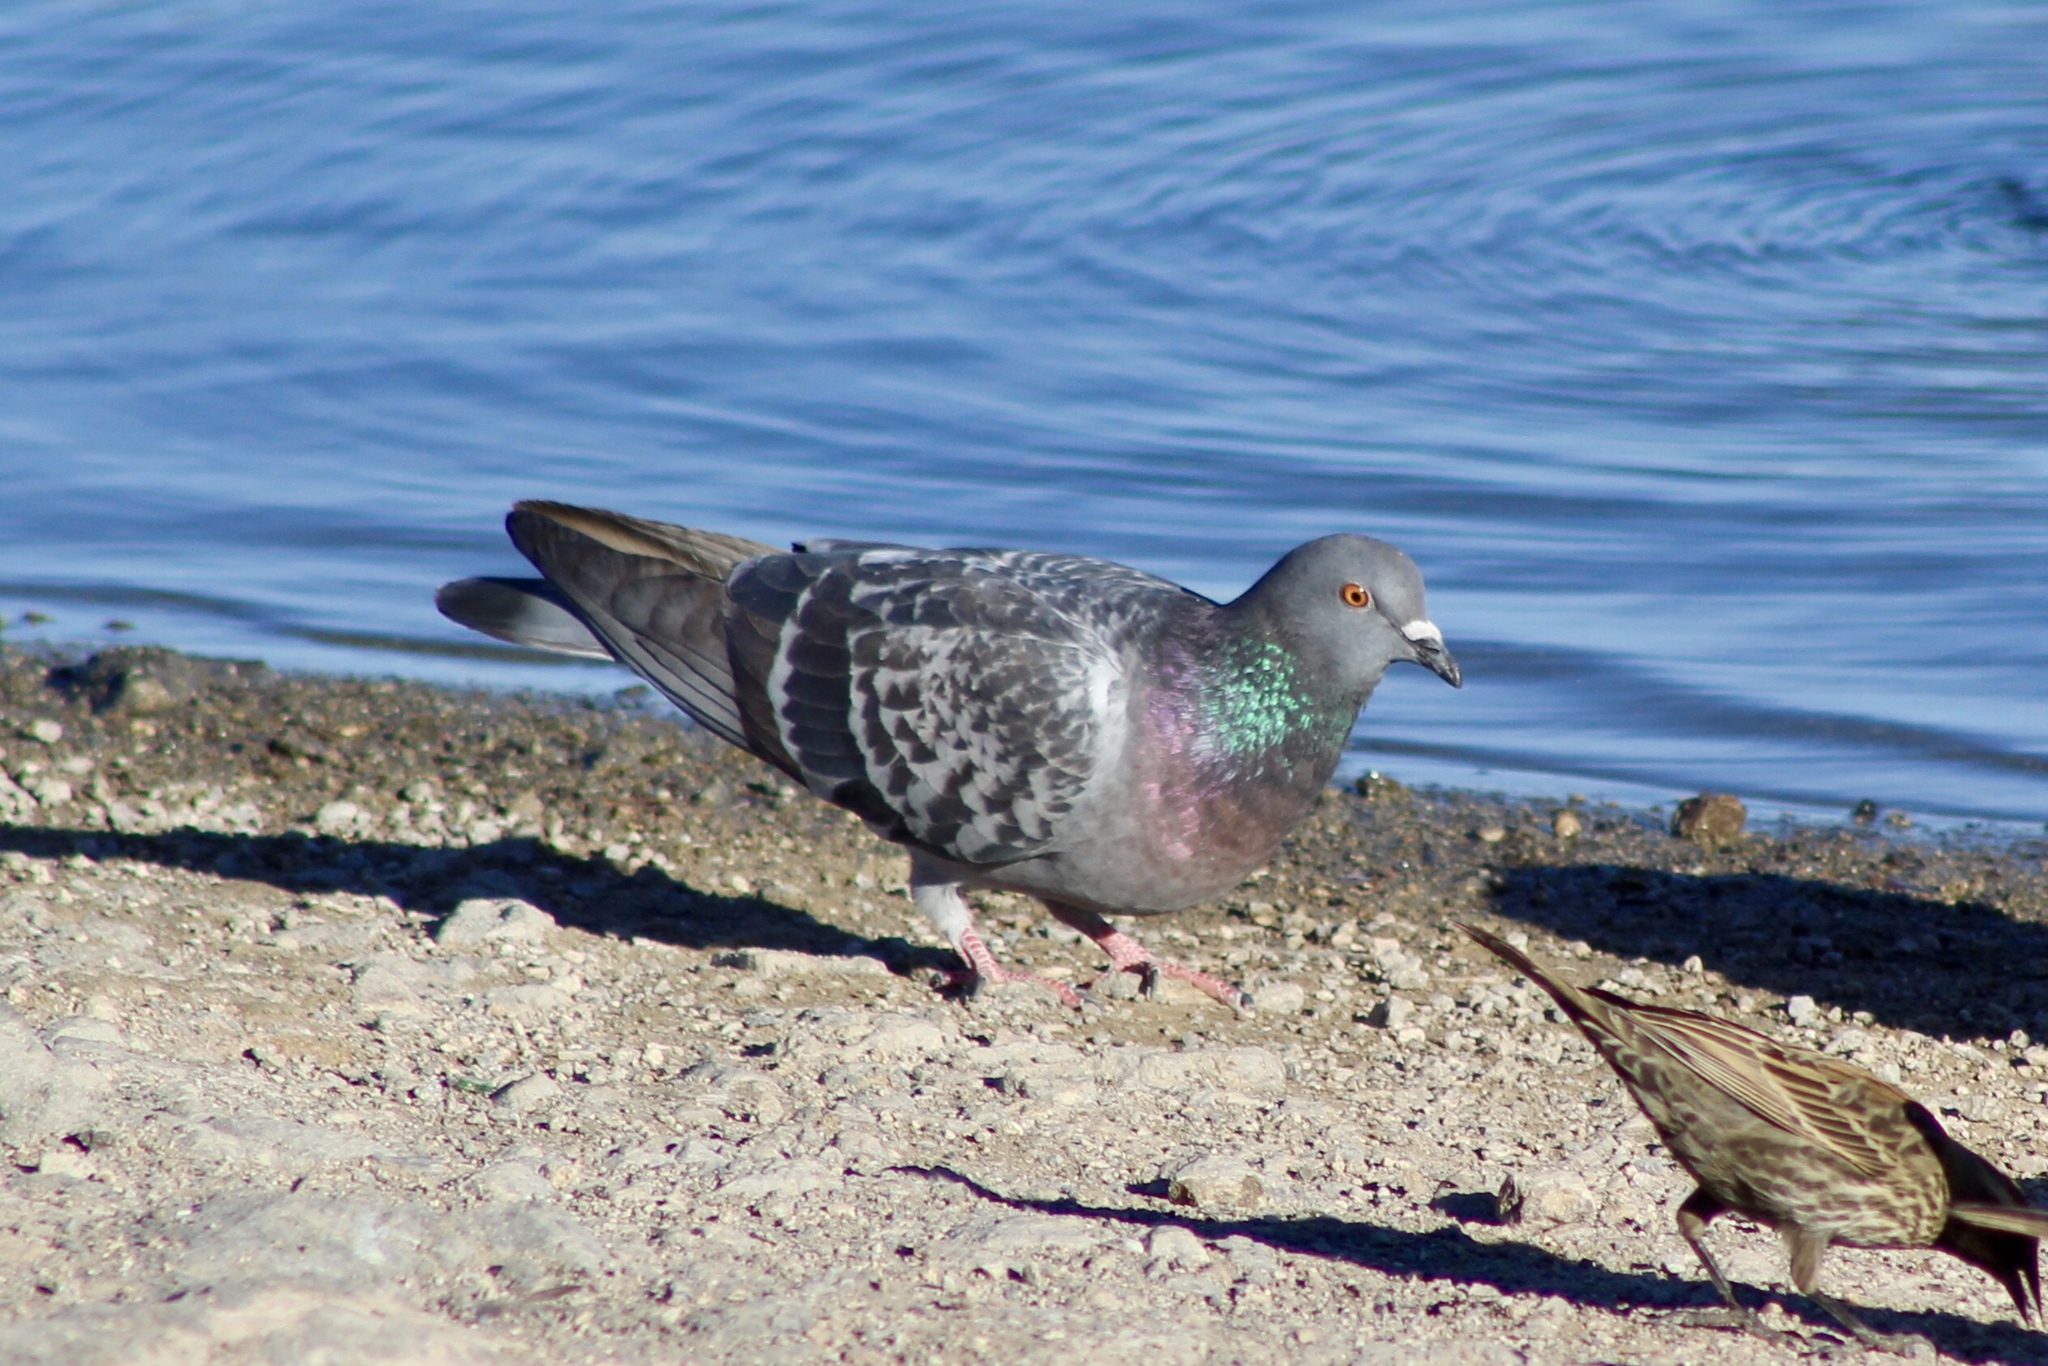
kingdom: Animalia
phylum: Chordata
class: Aves
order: Columbiformes
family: Columbidae
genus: Columba
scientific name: Columba livia
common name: Rock pigeon
